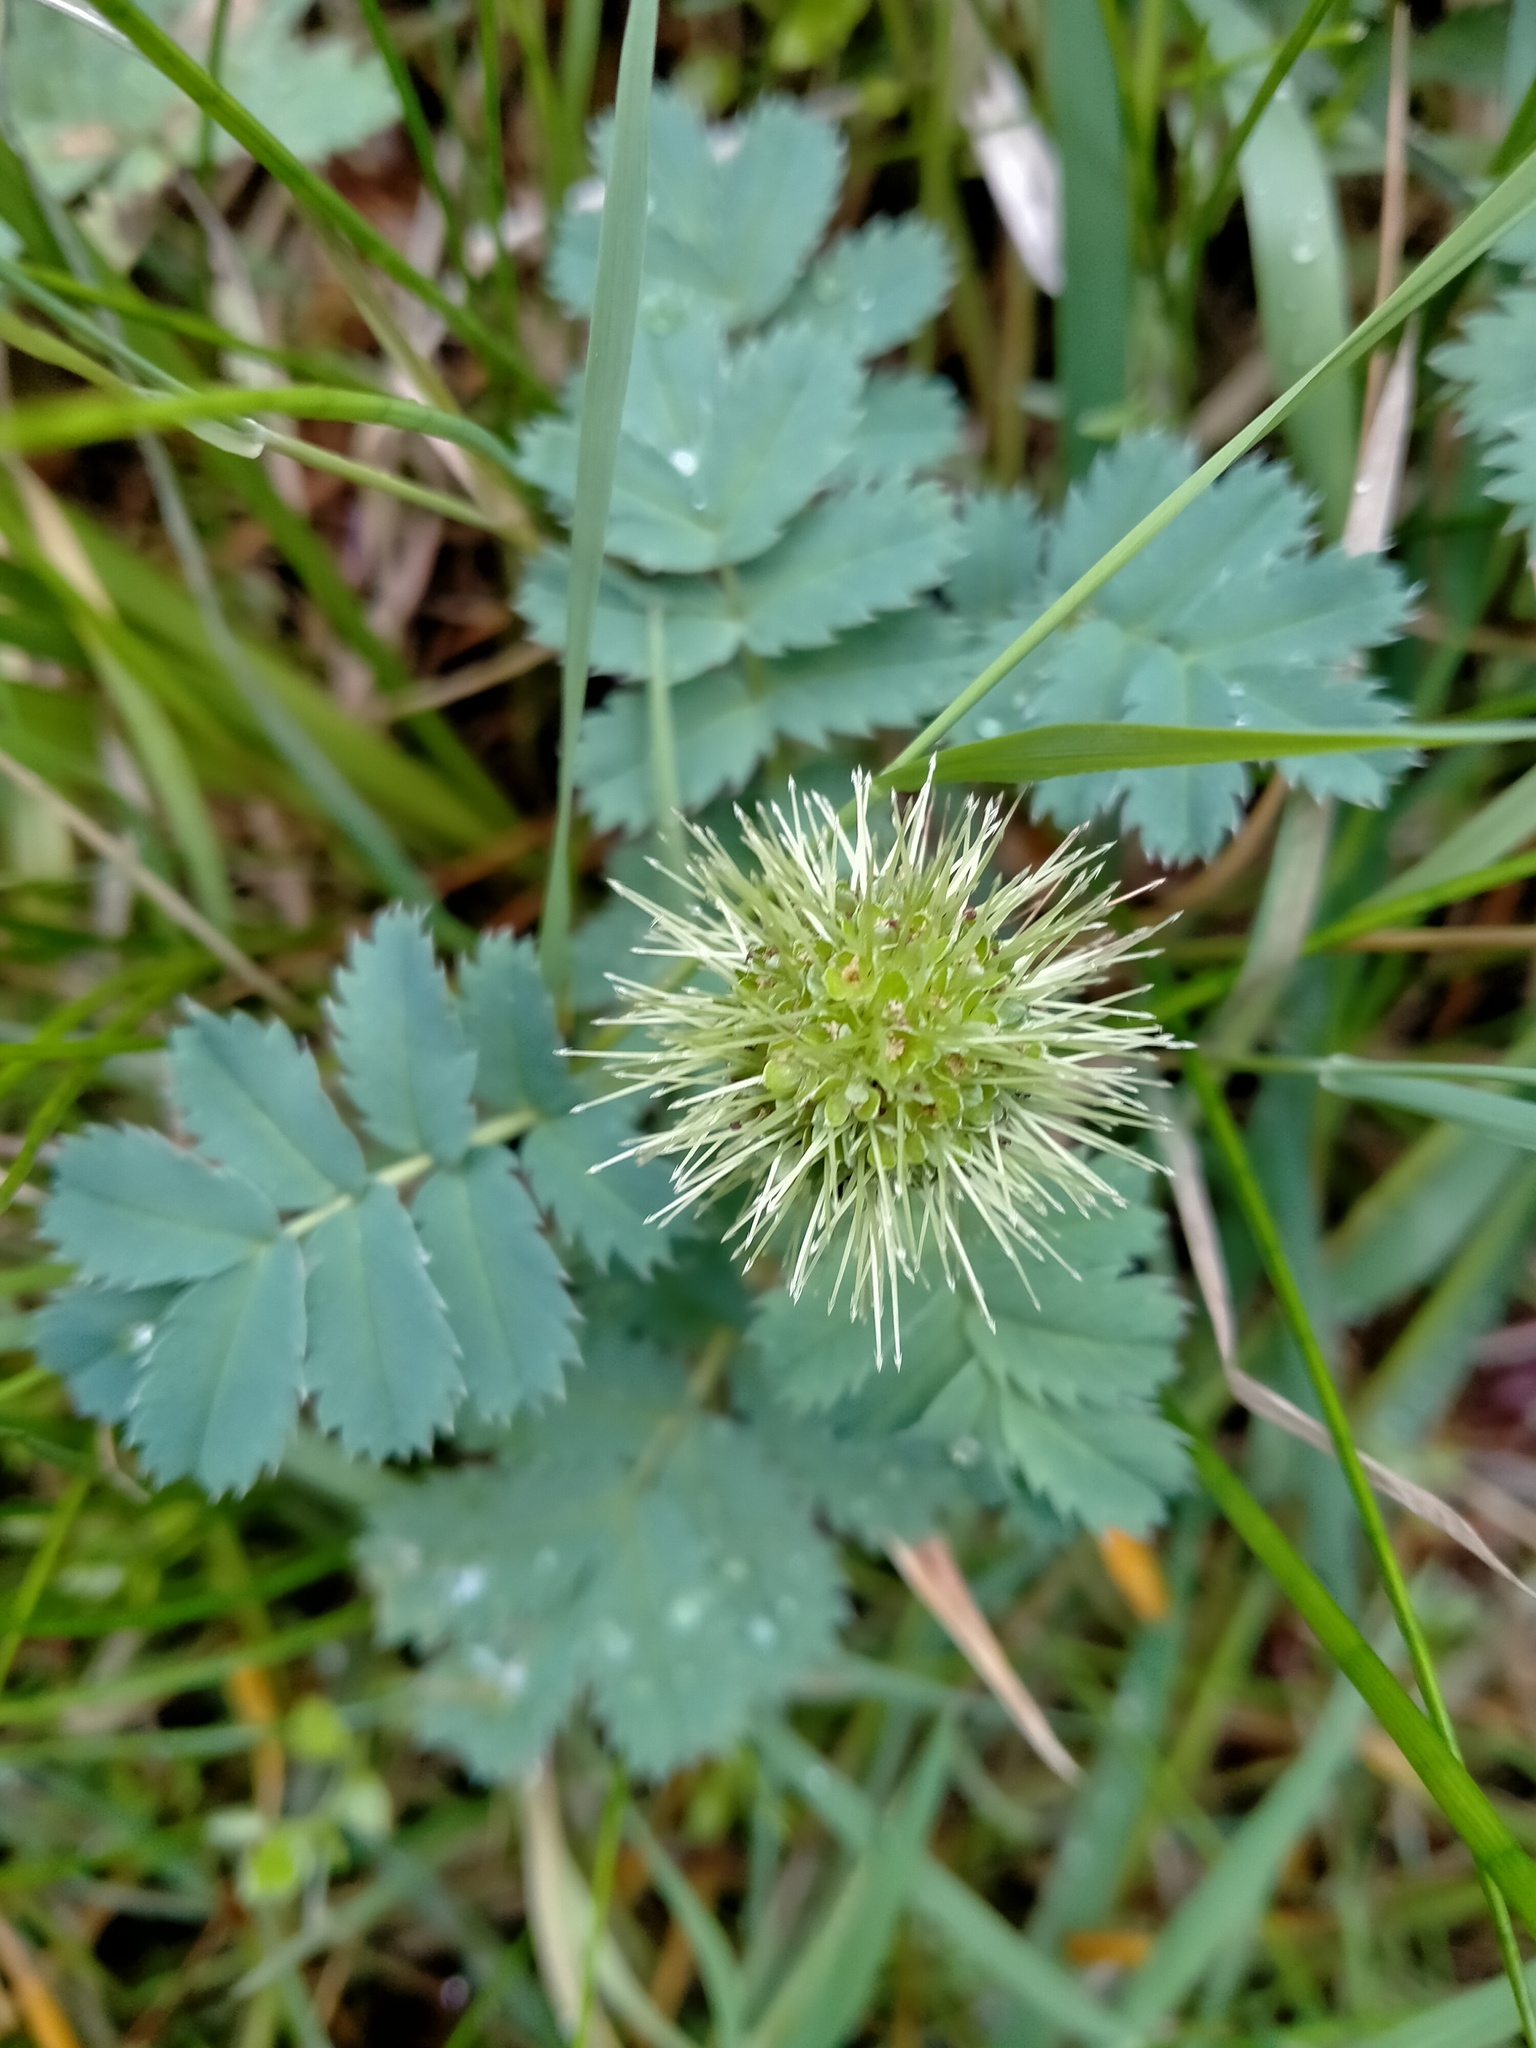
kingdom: Plantae
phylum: Tracheophyta
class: Magnoliopsida
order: Rosales
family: Rosaceae
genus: Acaena
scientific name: Acaena minor
